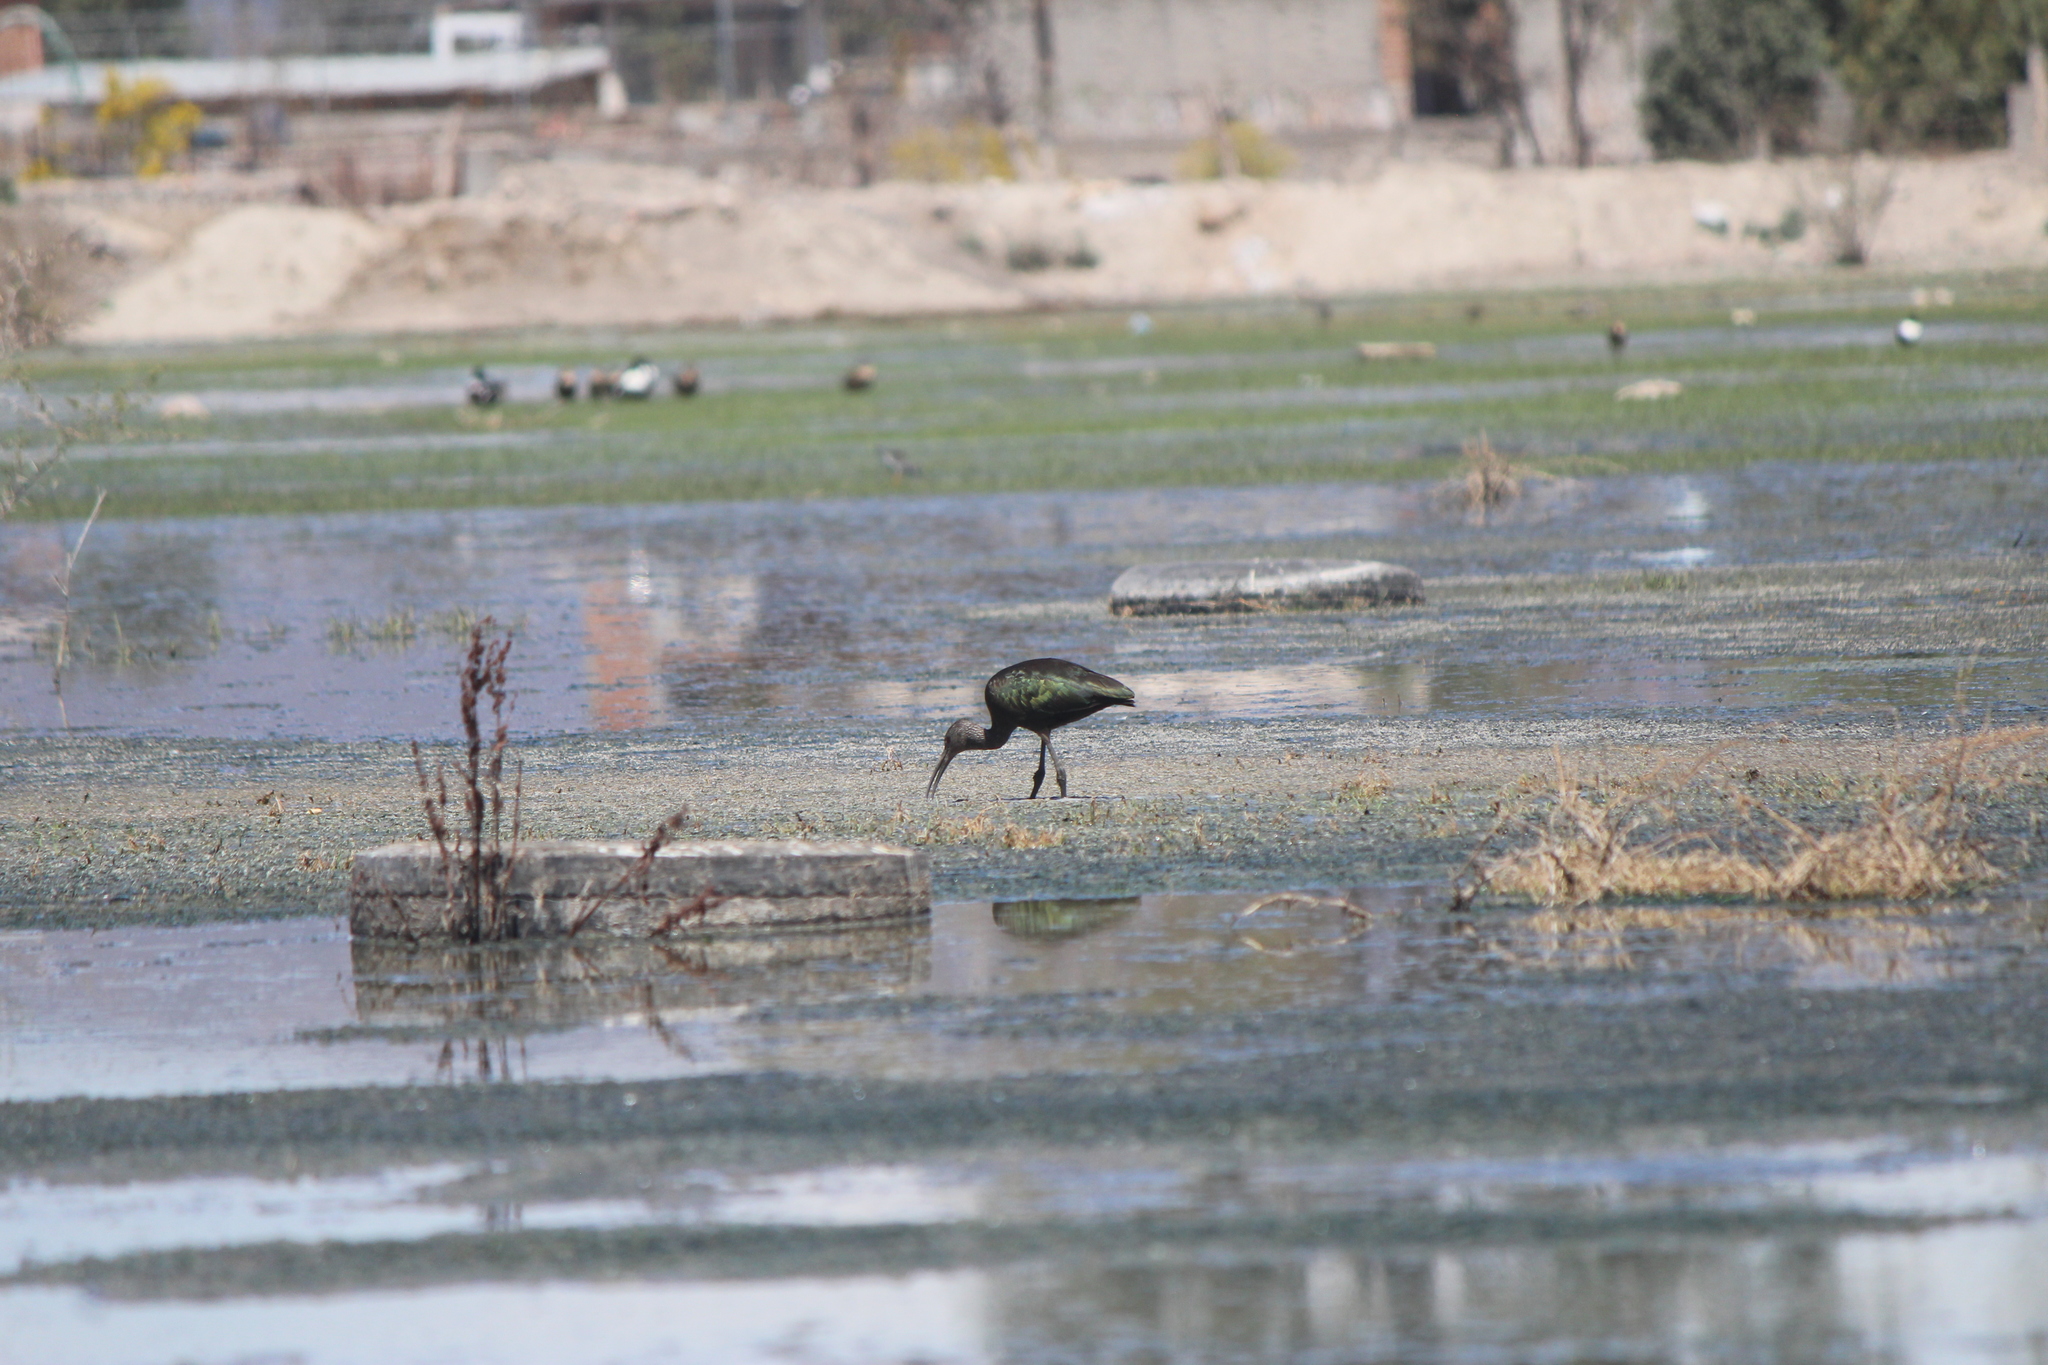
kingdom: Animalia
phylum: Chordata
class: Aves
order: Pelecaniformes
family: Threskiornithidae
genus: Plegadis
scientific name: Plegadis chihi
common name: White-faced ibis
